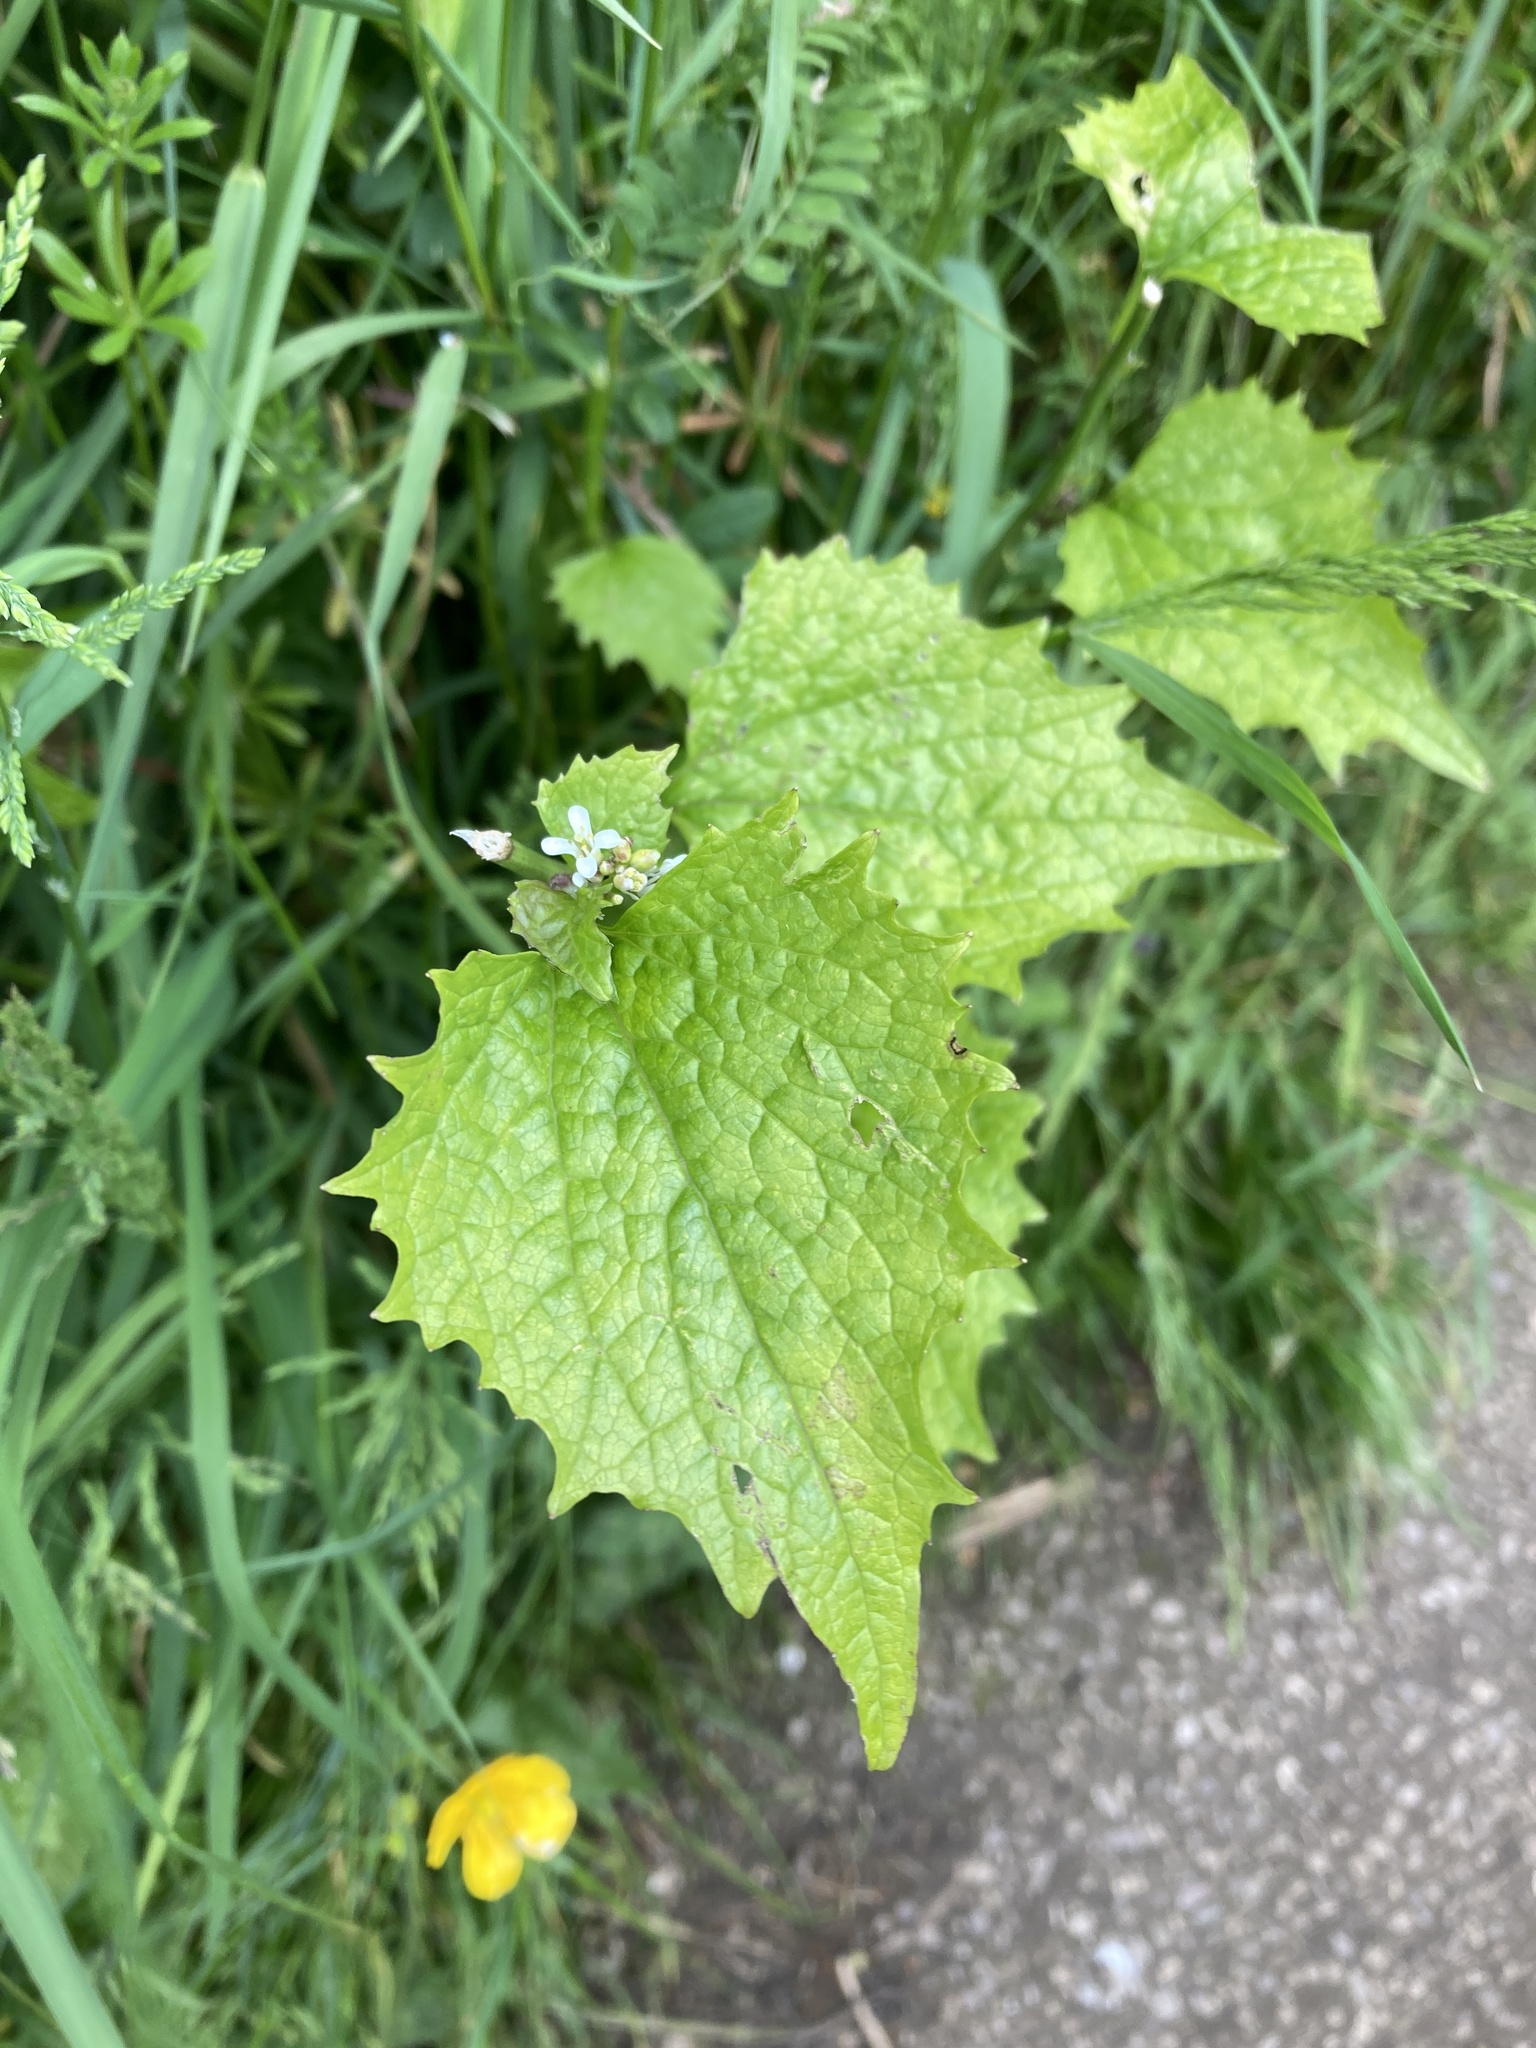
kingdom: Plantae
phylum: Tracheophyta
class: Magnoliopsida
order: Brassicales
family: Brassicaceae
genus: Alliaria
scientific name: Alliaria petiolata
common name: Garlic mustard
